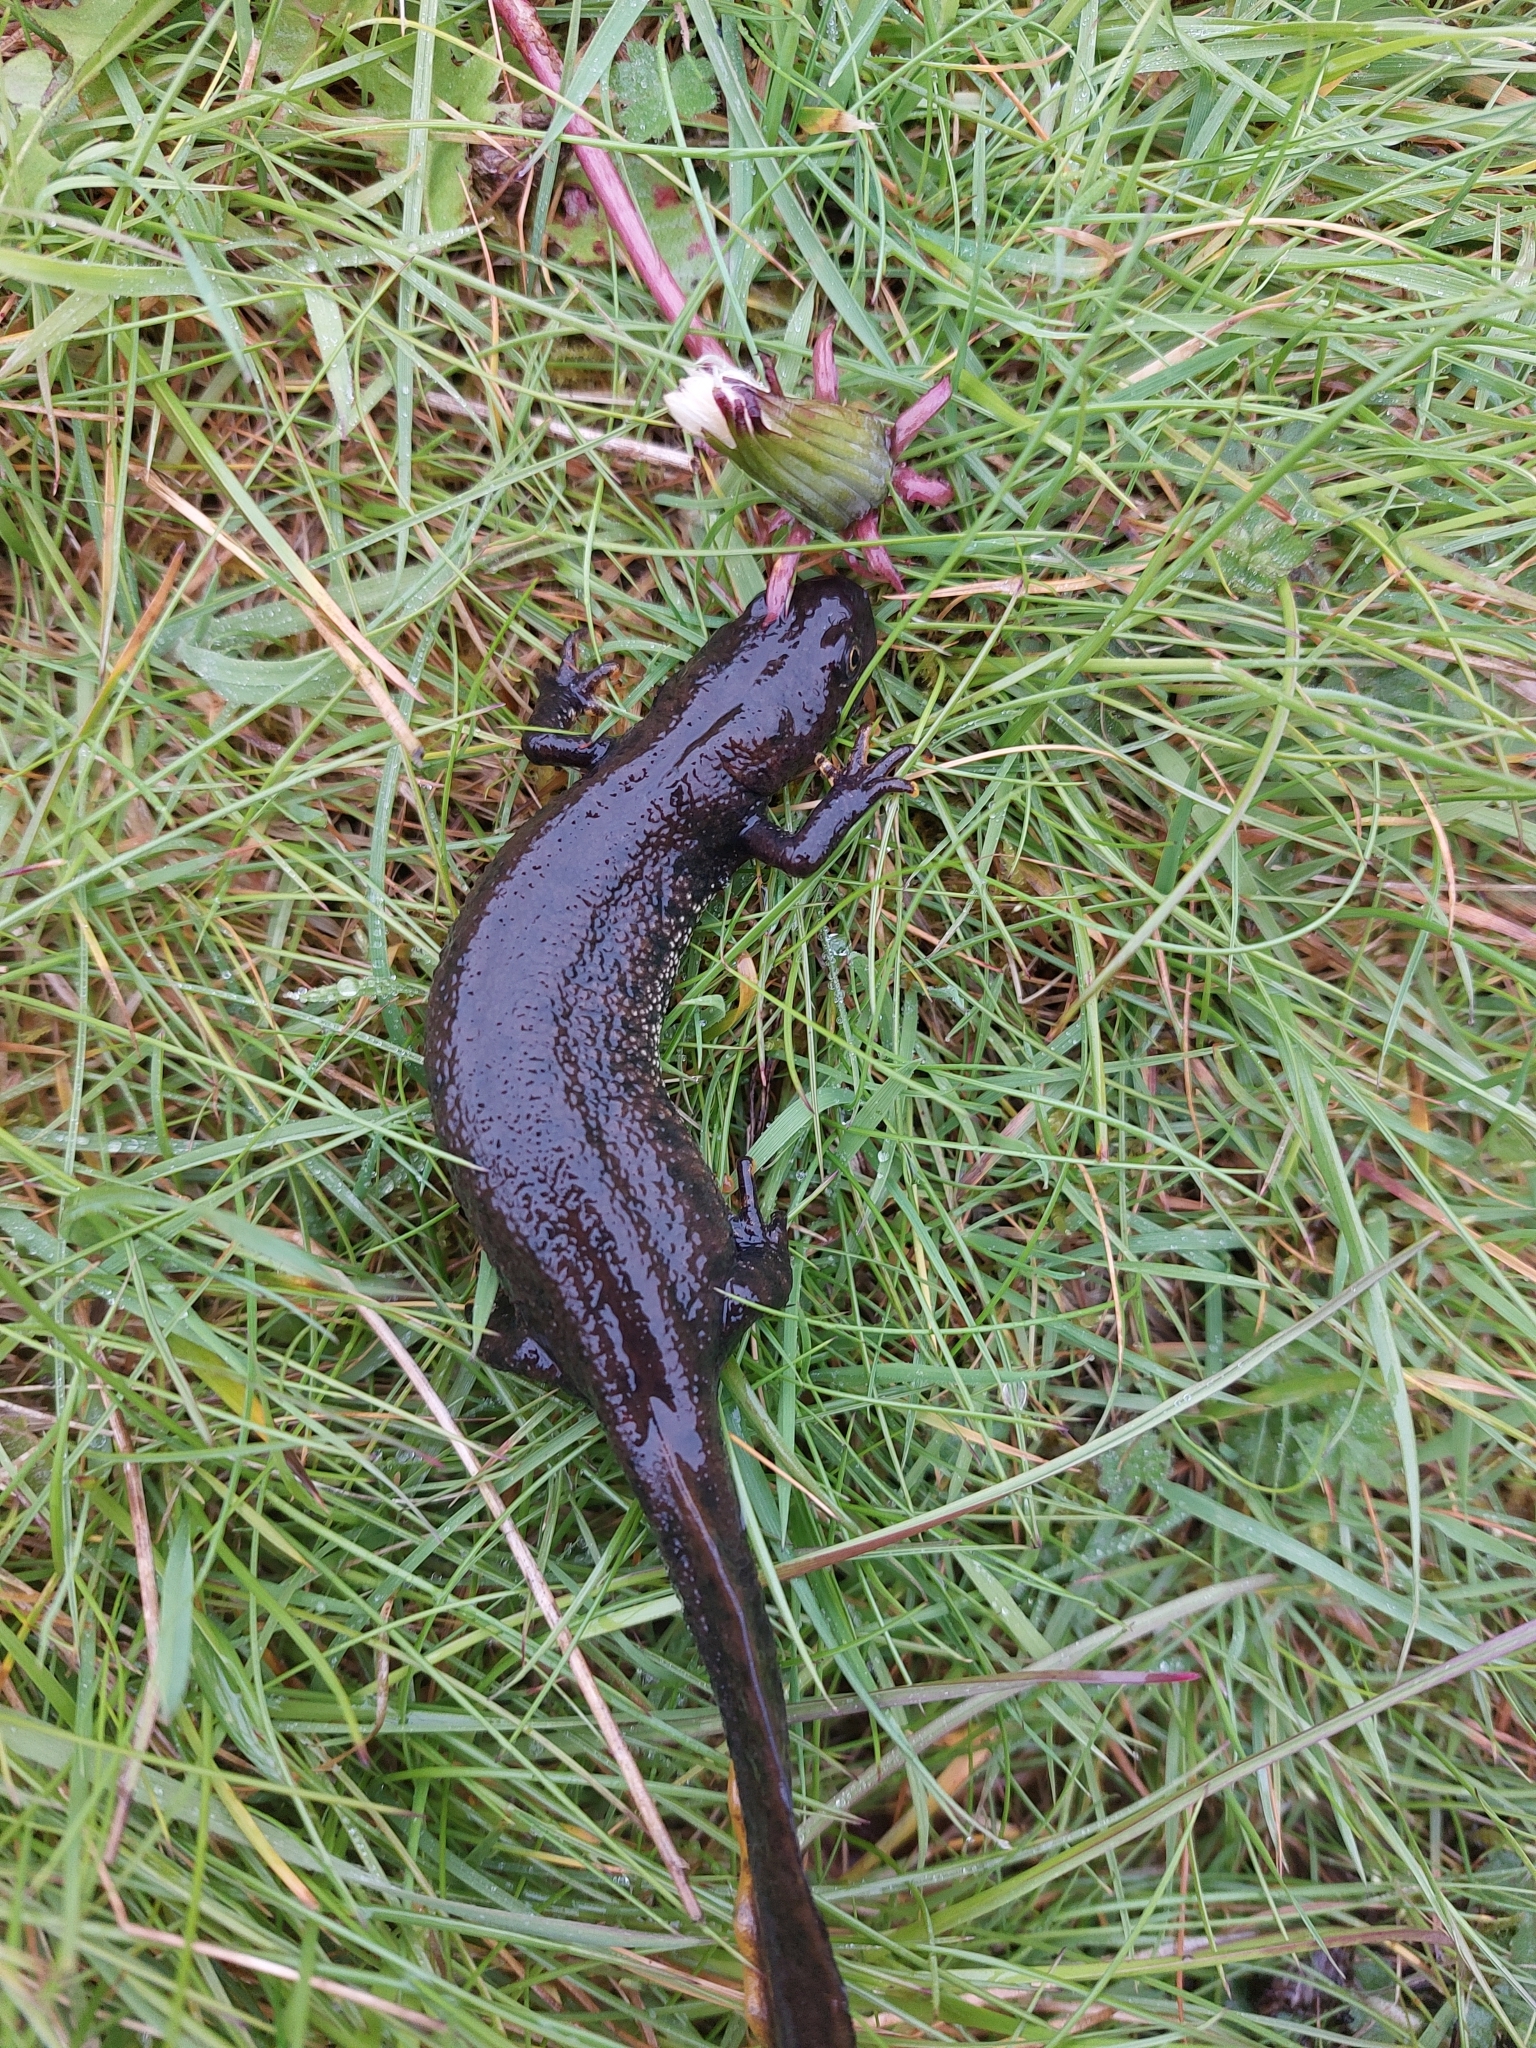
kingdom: Animalia
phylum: Chordata
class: Amphibia
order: Caudata
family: Salamandridae
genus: Triturus
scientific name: Triturus cristatus
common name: Crested newt
